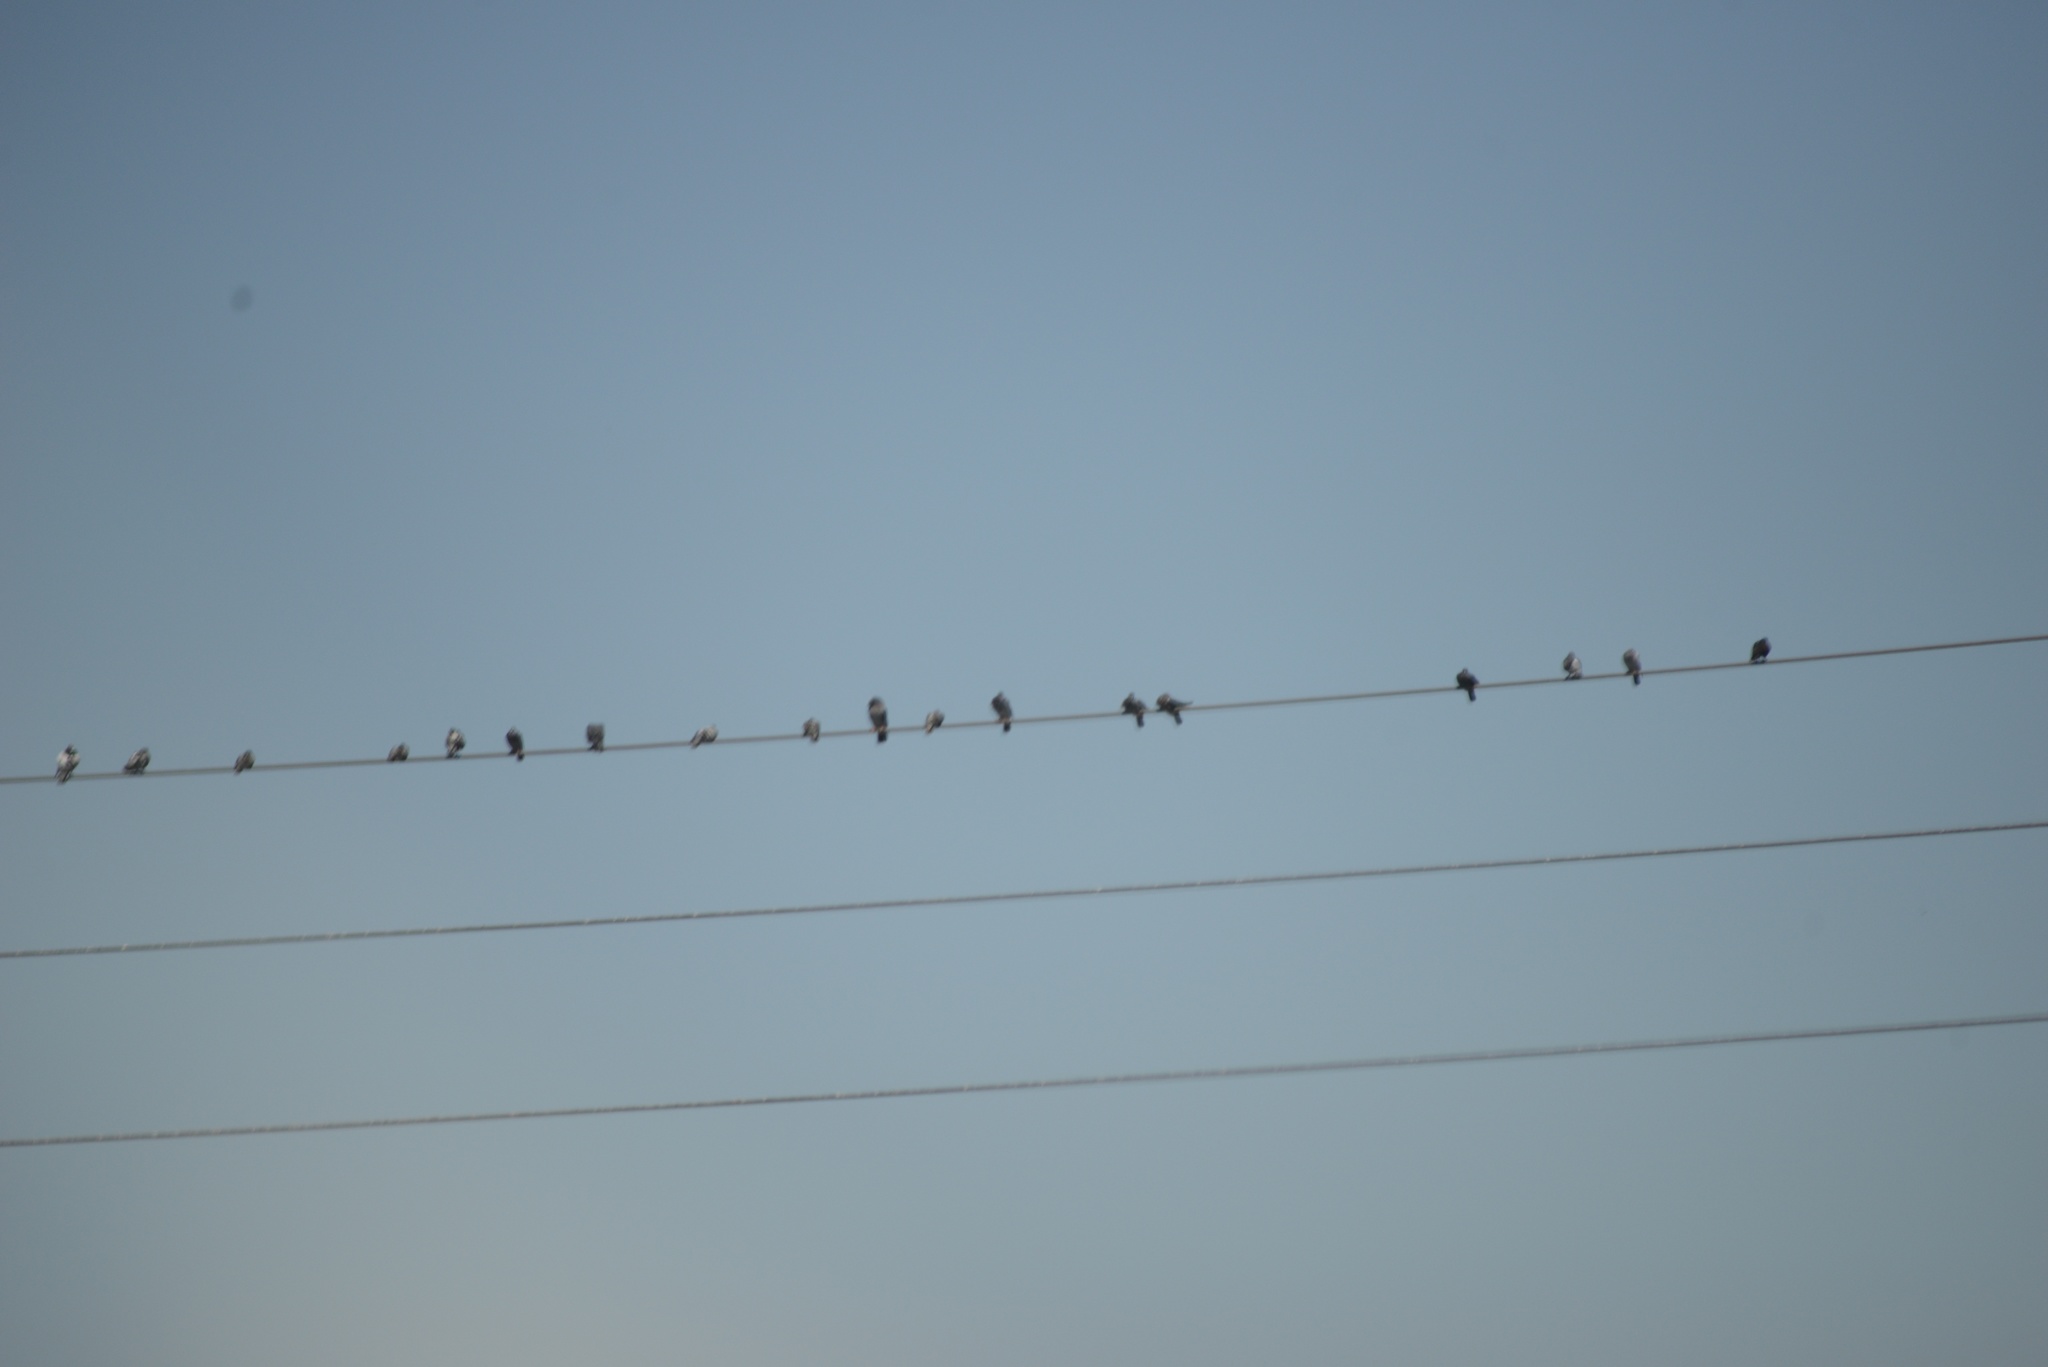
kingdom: Animalia
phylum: Chordata
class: Aves
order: Columbiformes
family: Columbidae
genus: Columba
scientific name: Columba livia
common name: Rock pigeon
